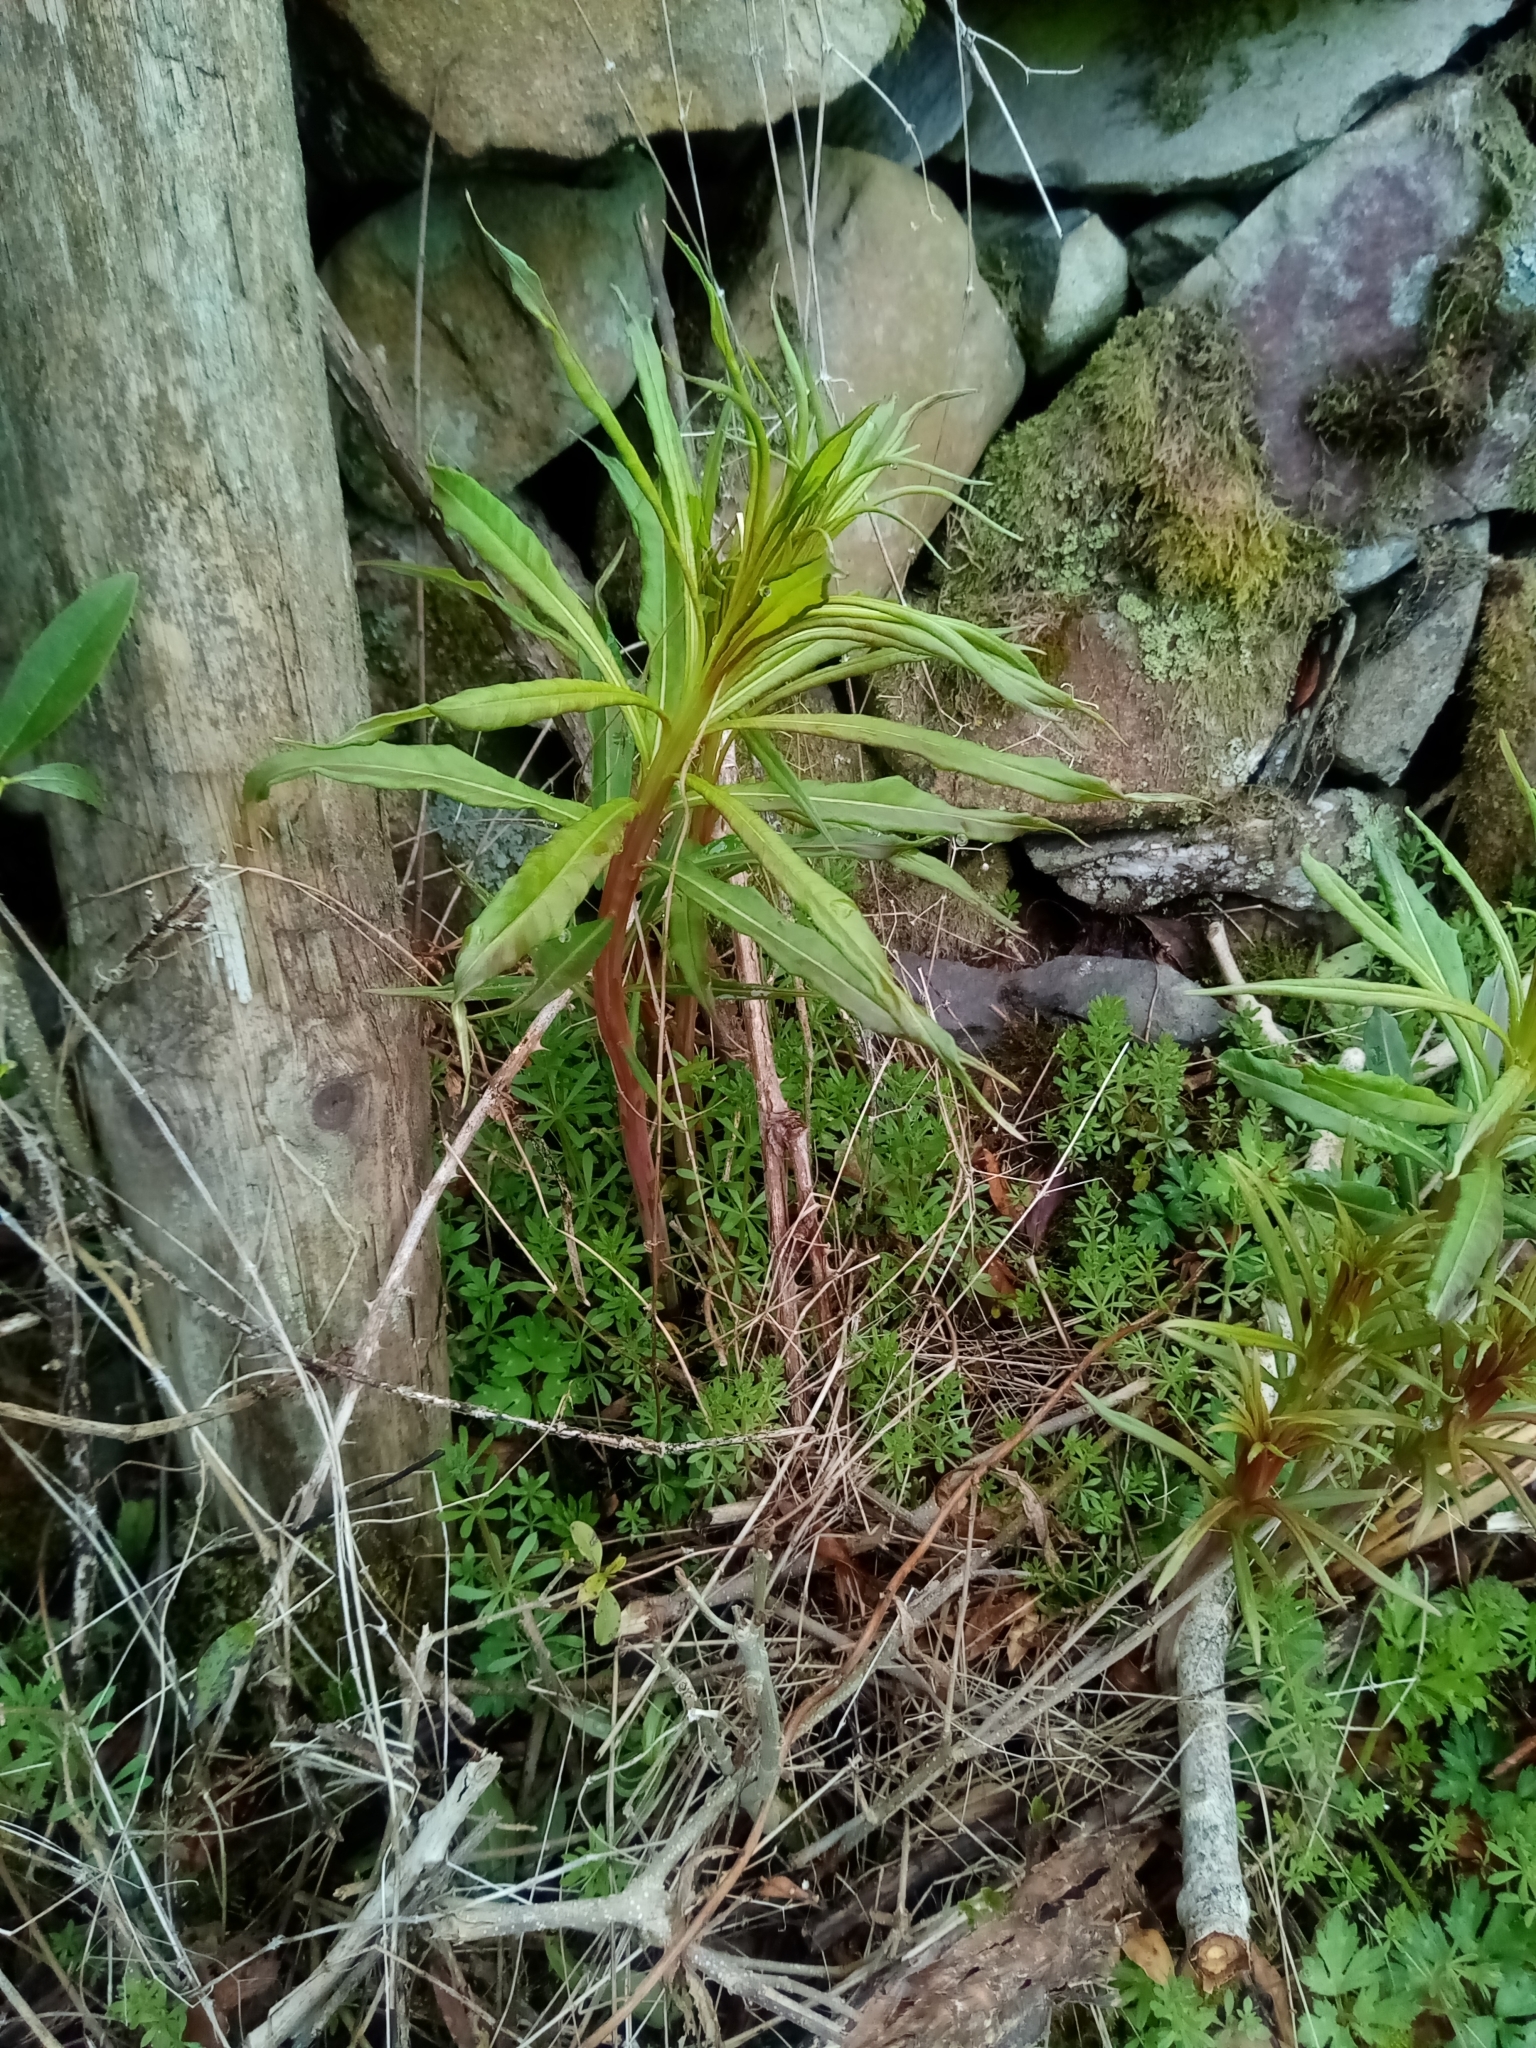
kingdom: Plantae
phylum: Tracheophyta
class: Magnoliopsida
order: Myrtales
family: Onagraceae
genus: Chamaenerion
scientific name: Chamaenerion angustifolium
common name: Fireweed
